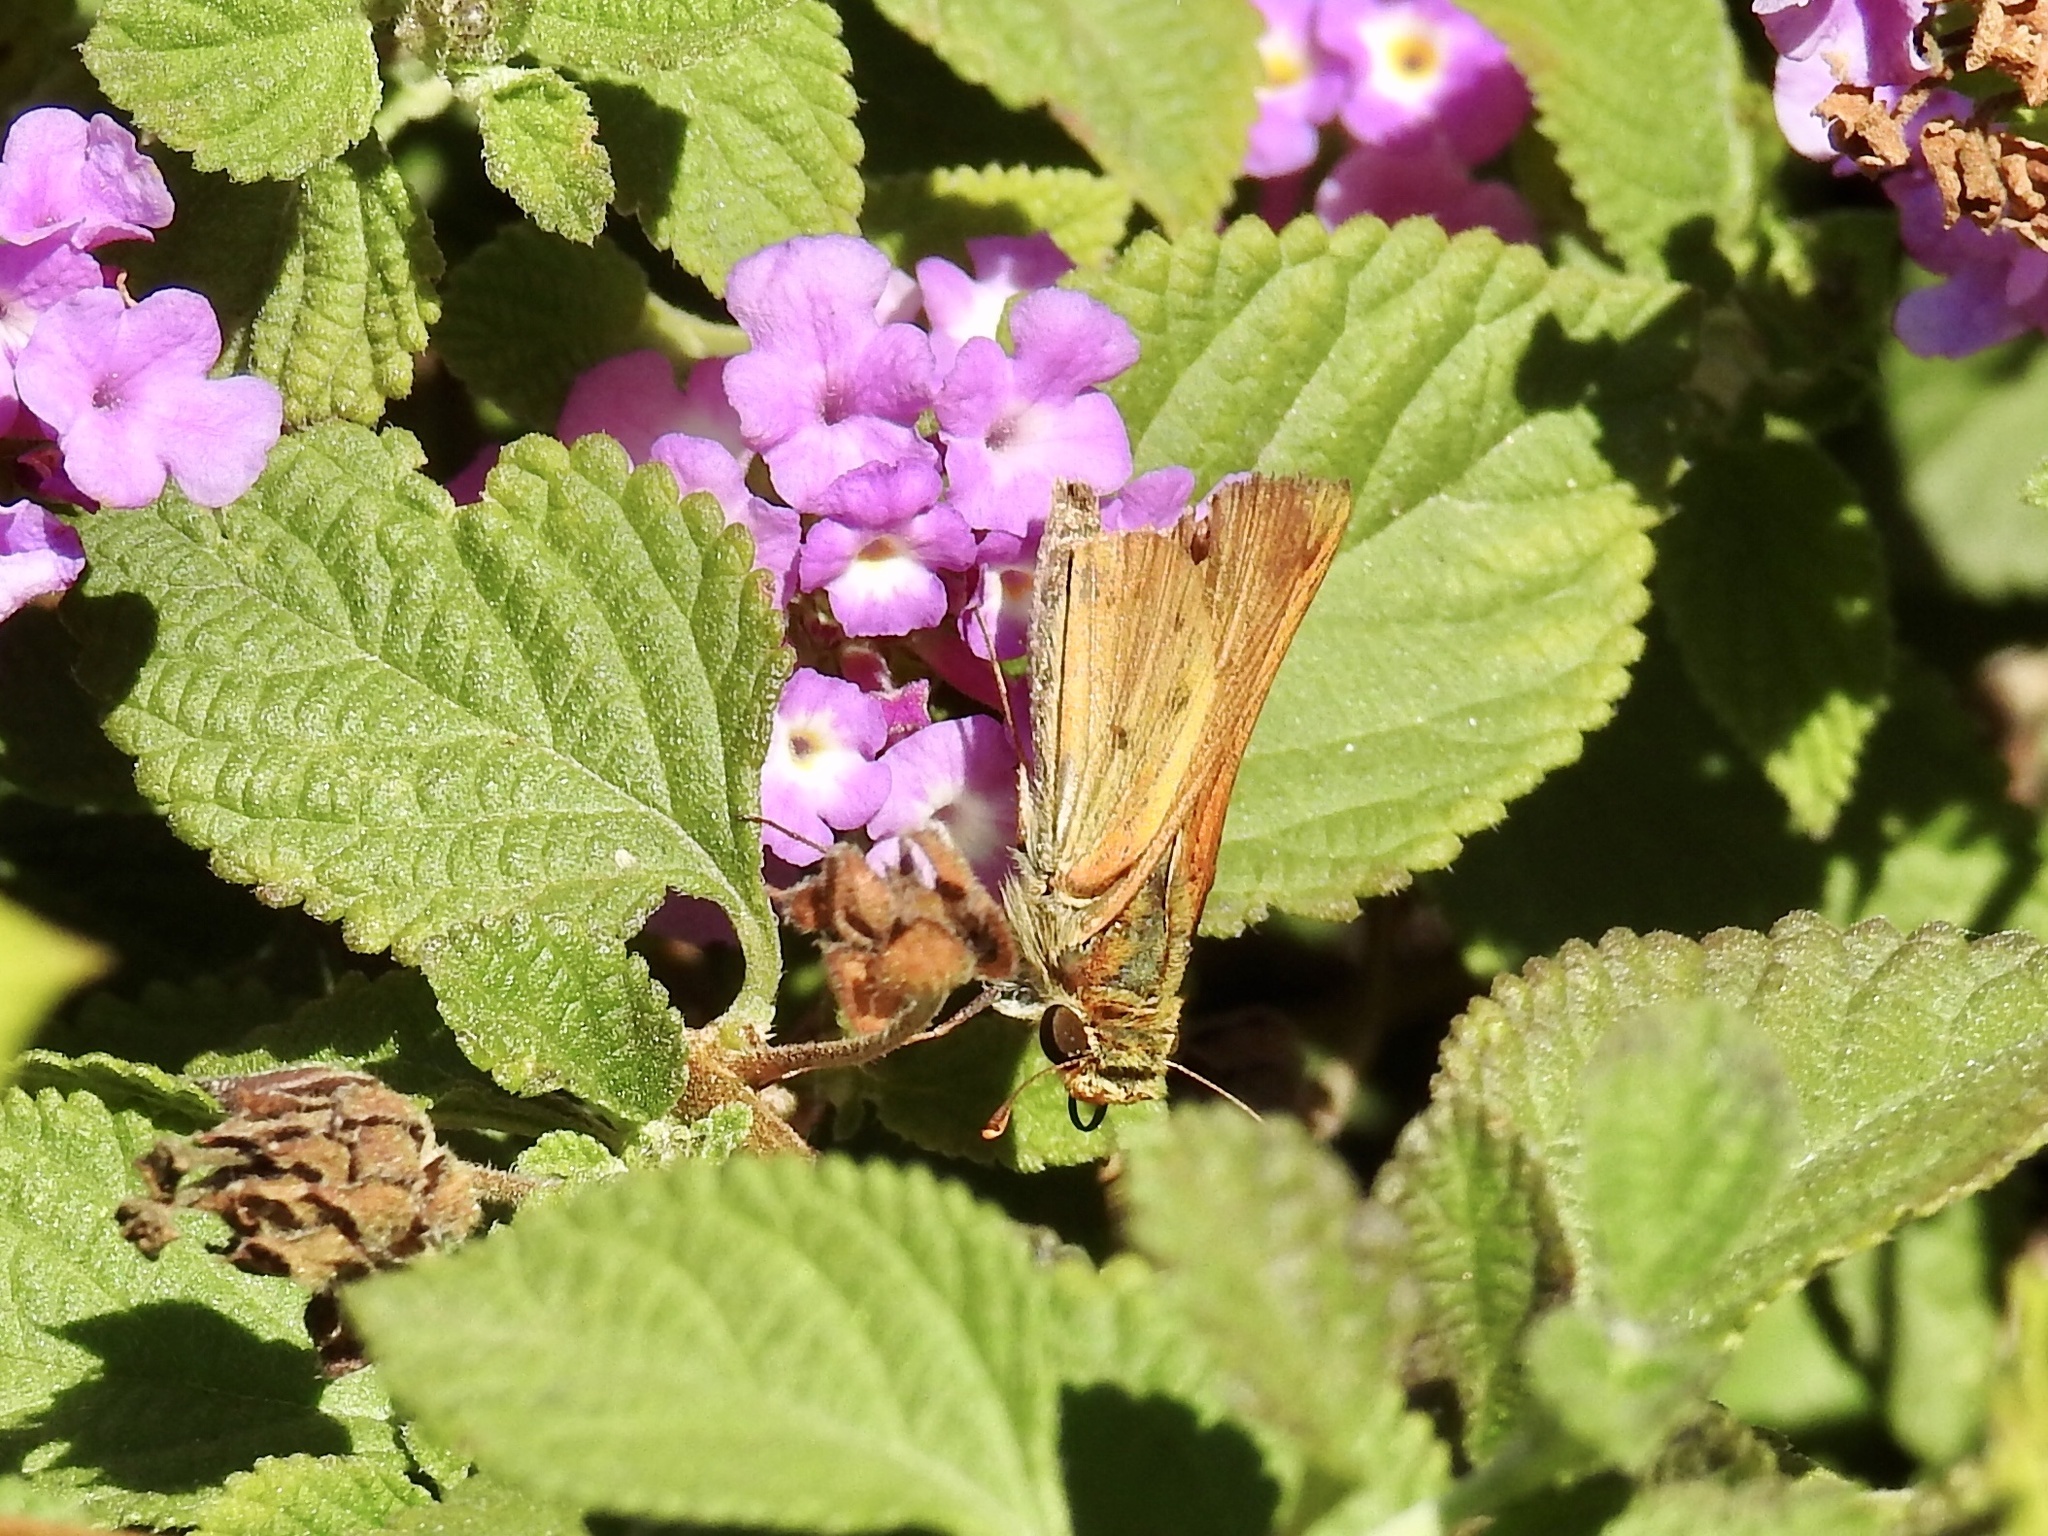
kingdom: Animalia
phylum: Arthropoda
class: Insecta
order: Lepidoptera
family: Hesperiidae
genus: Hylephila
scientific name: Hylephila phyleus
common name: Fiery skipper
